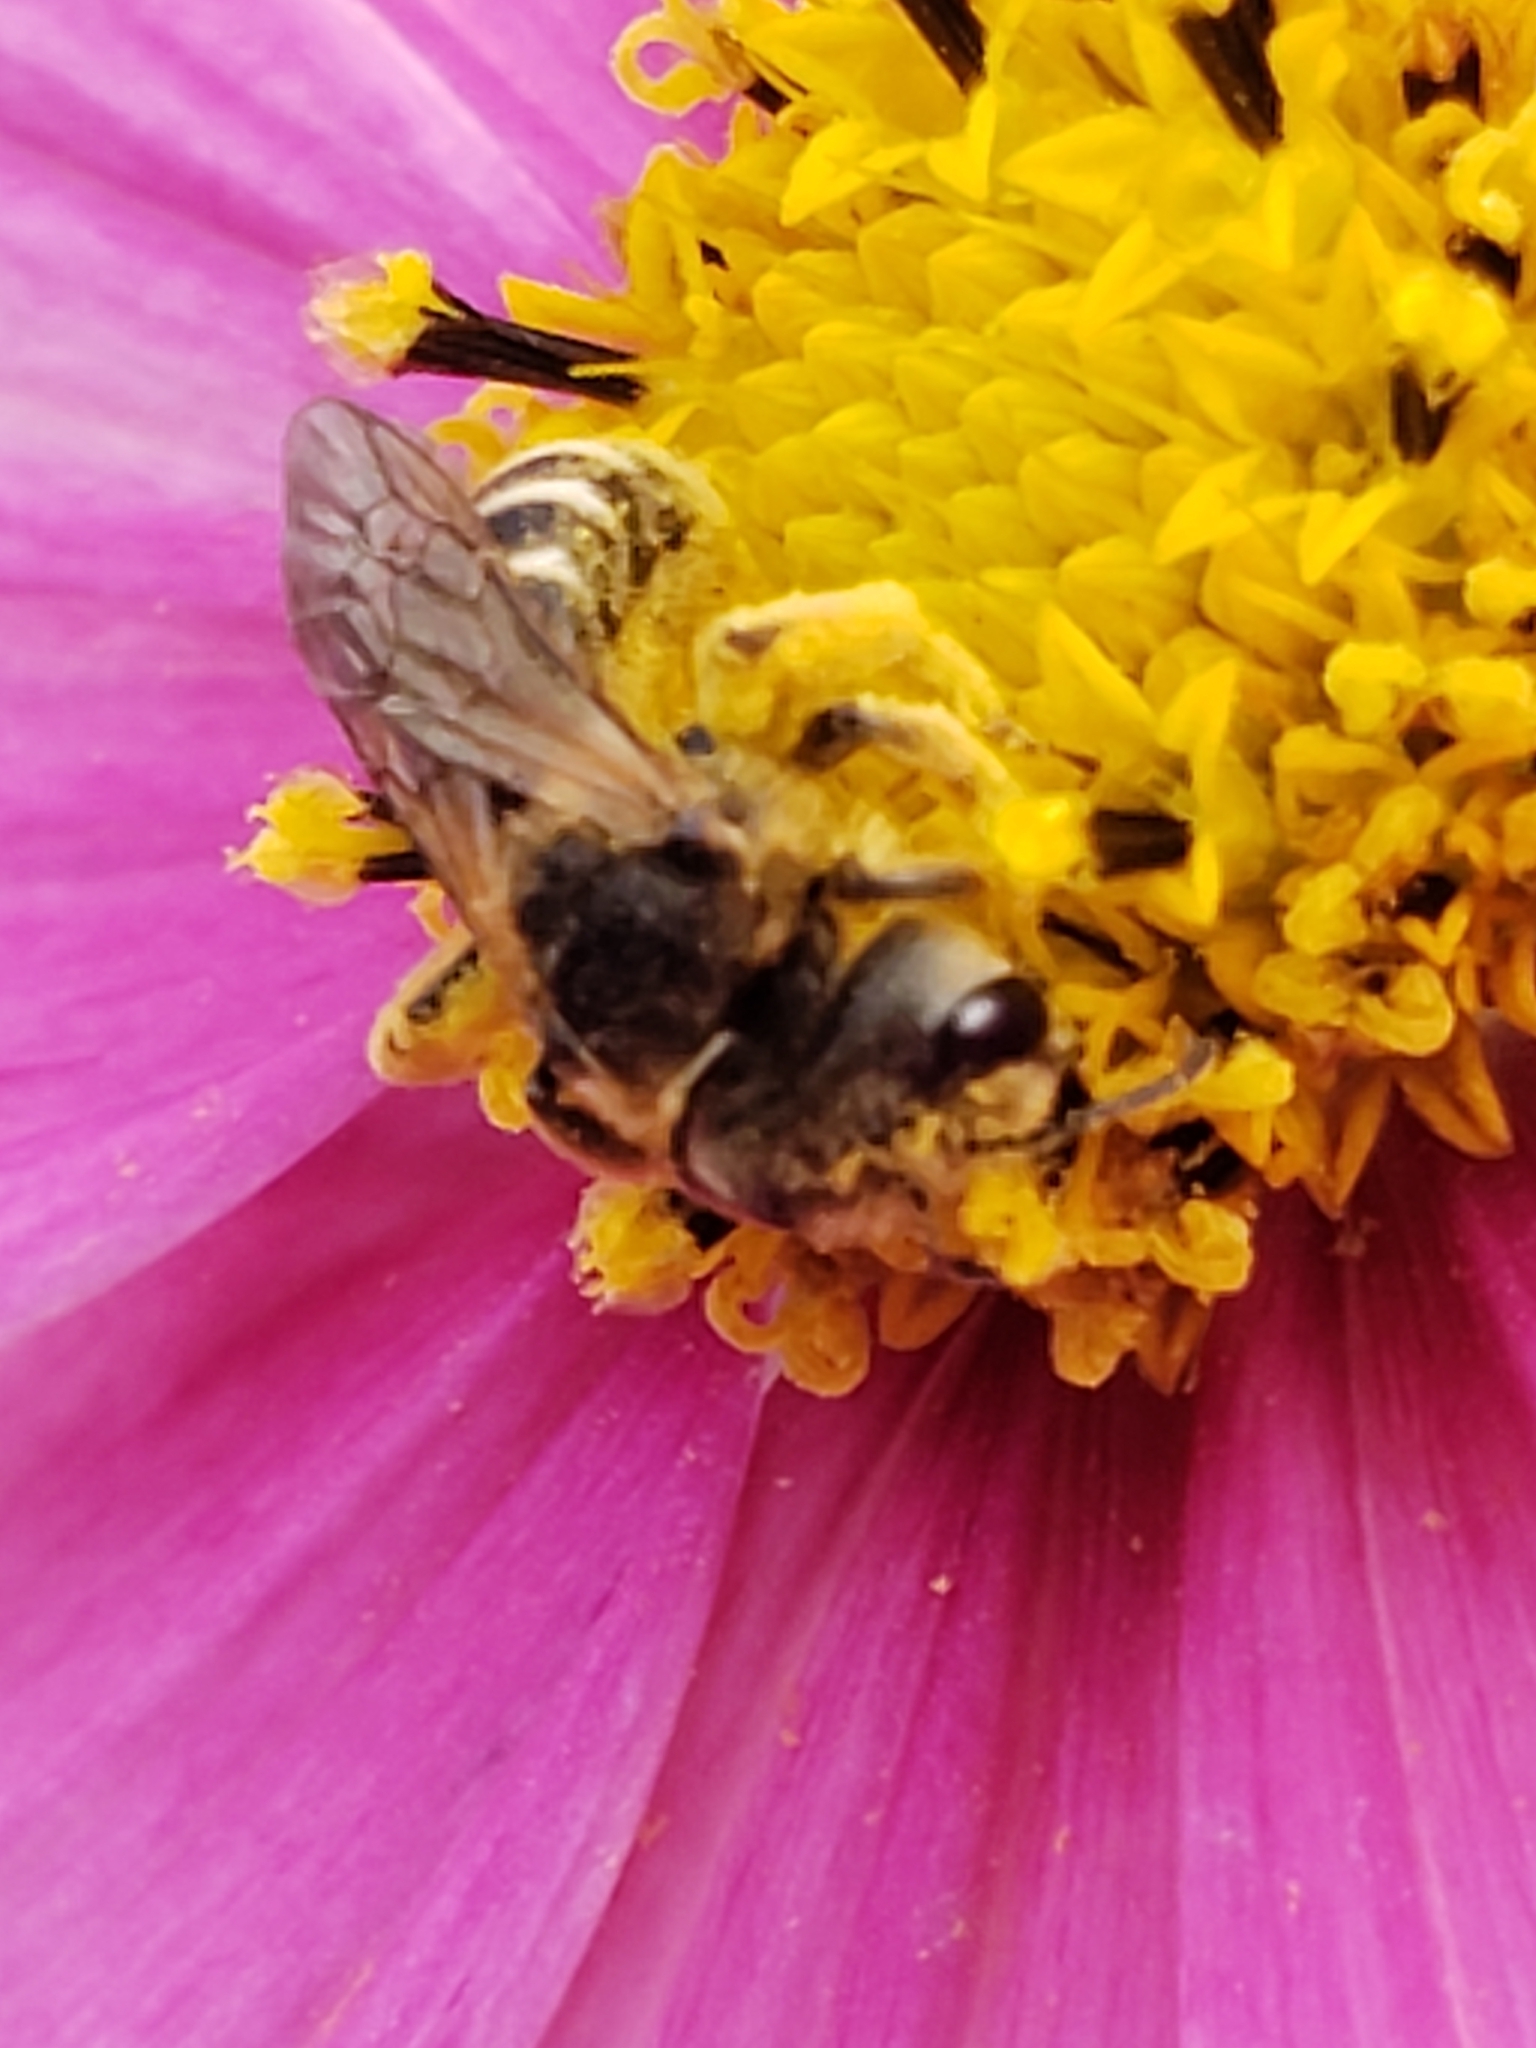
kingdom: Animalia
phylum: Arthropoda
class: Insecta
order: Hymenoptera
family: Halictidae
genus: Halictus
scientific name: Halictus ligatus
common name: Ligated furrow bee
